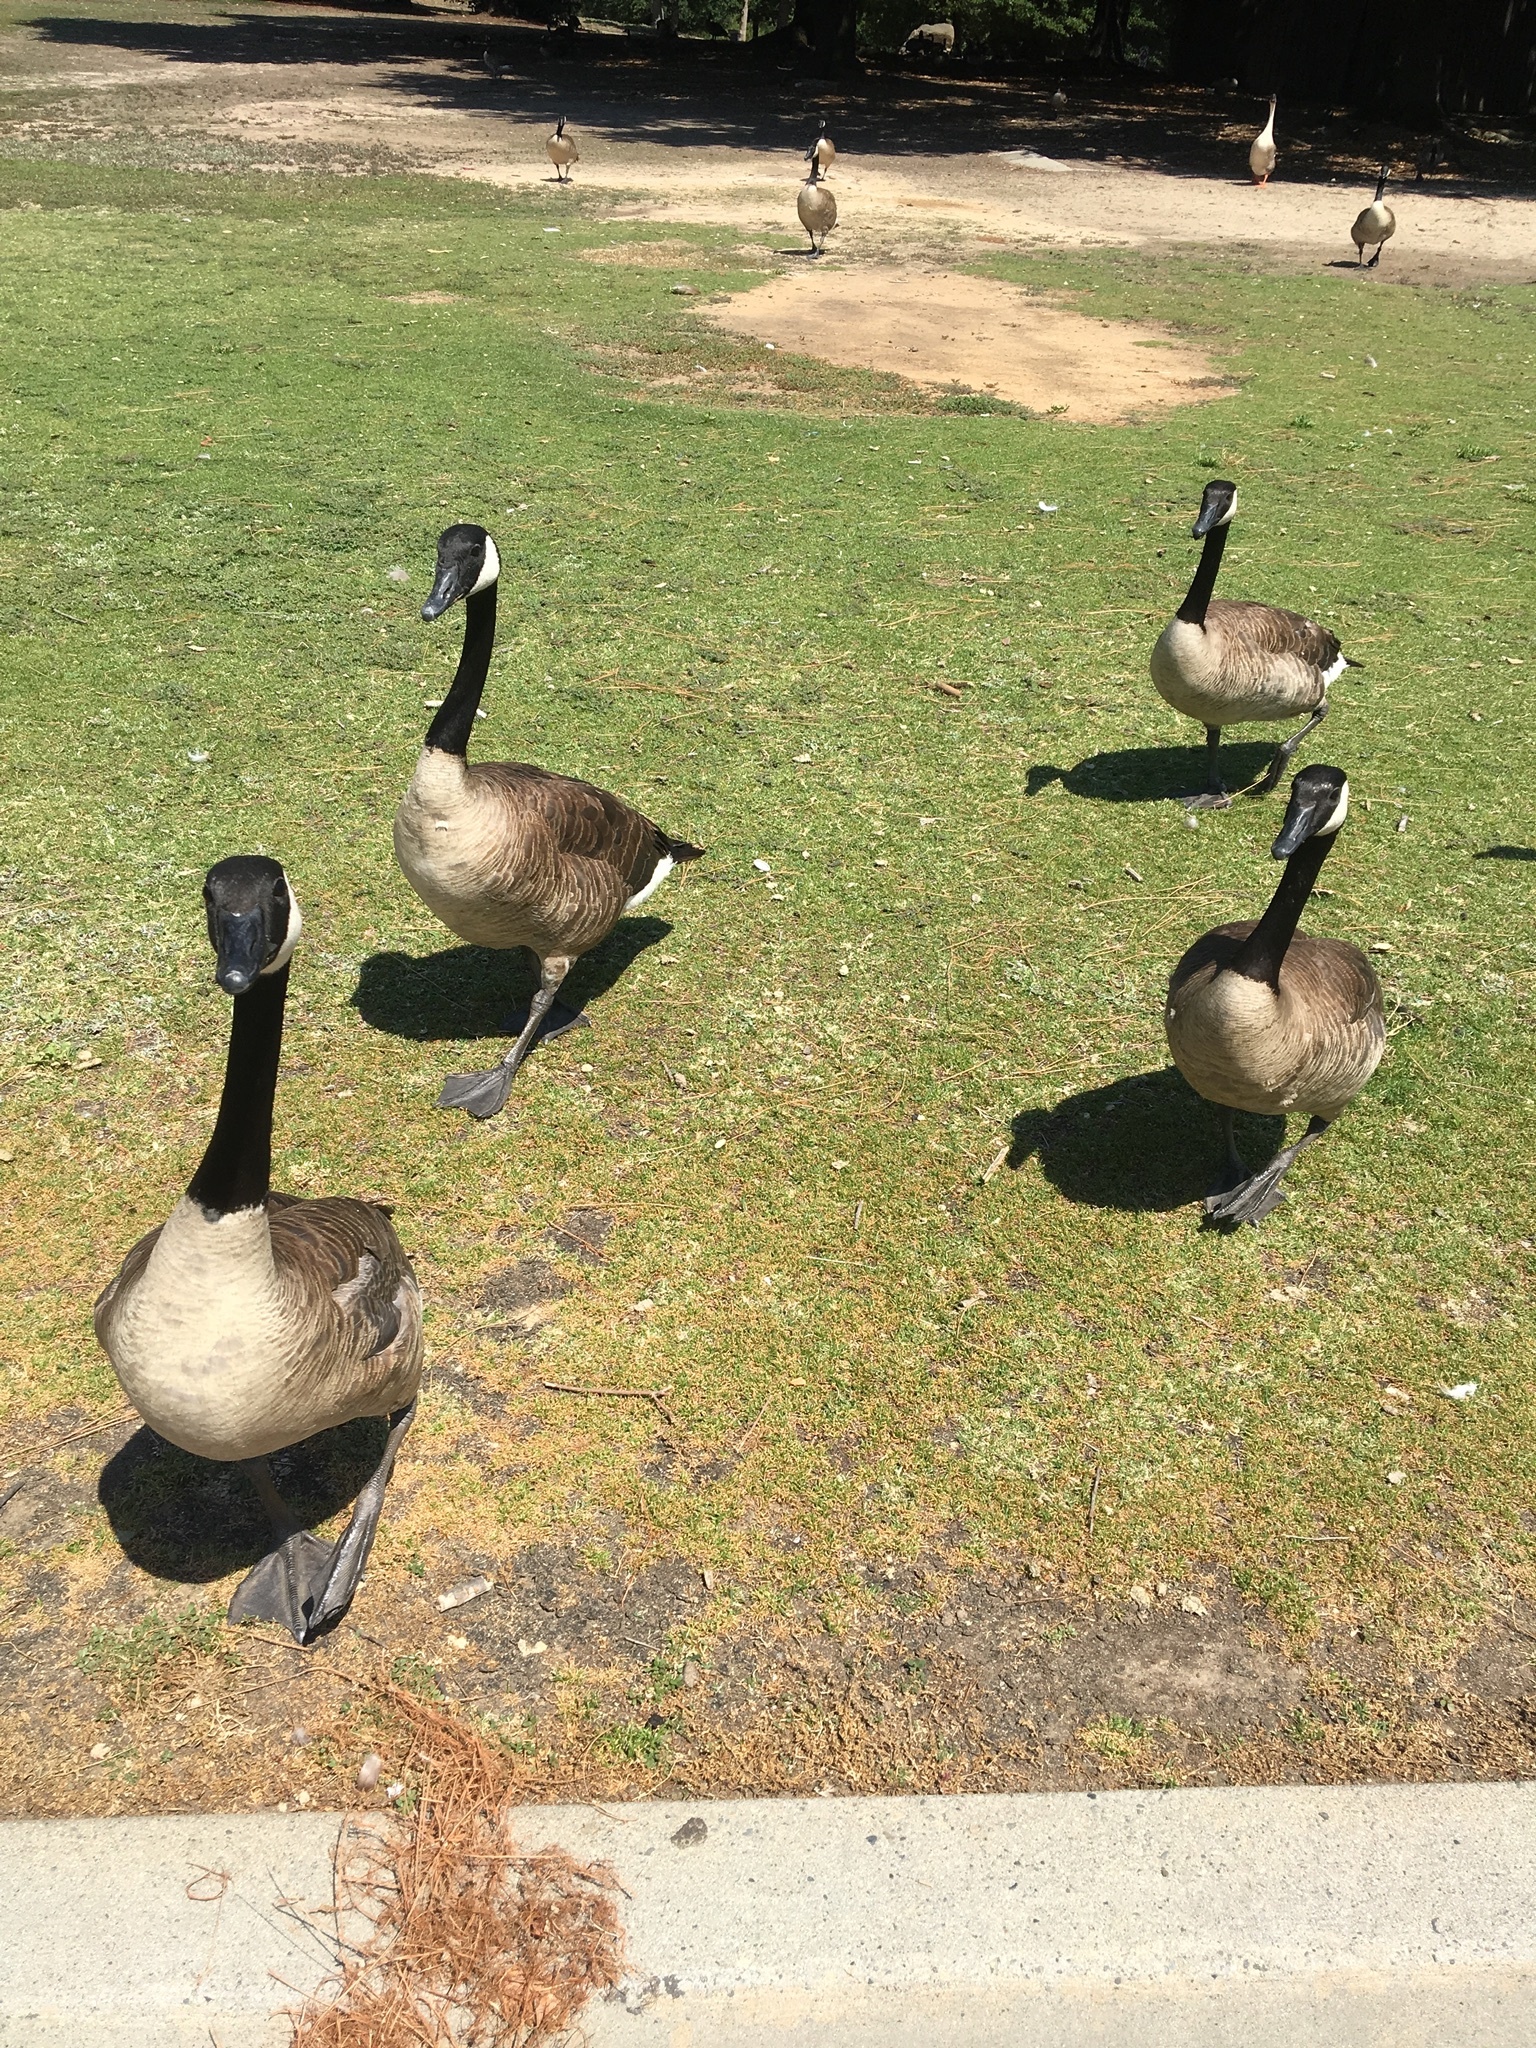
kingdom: Animalia
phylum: Chordata
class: Aves
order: Anseriformes
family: Anatidae
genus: Branta
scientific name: Branta canadensis
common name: Canada goose
